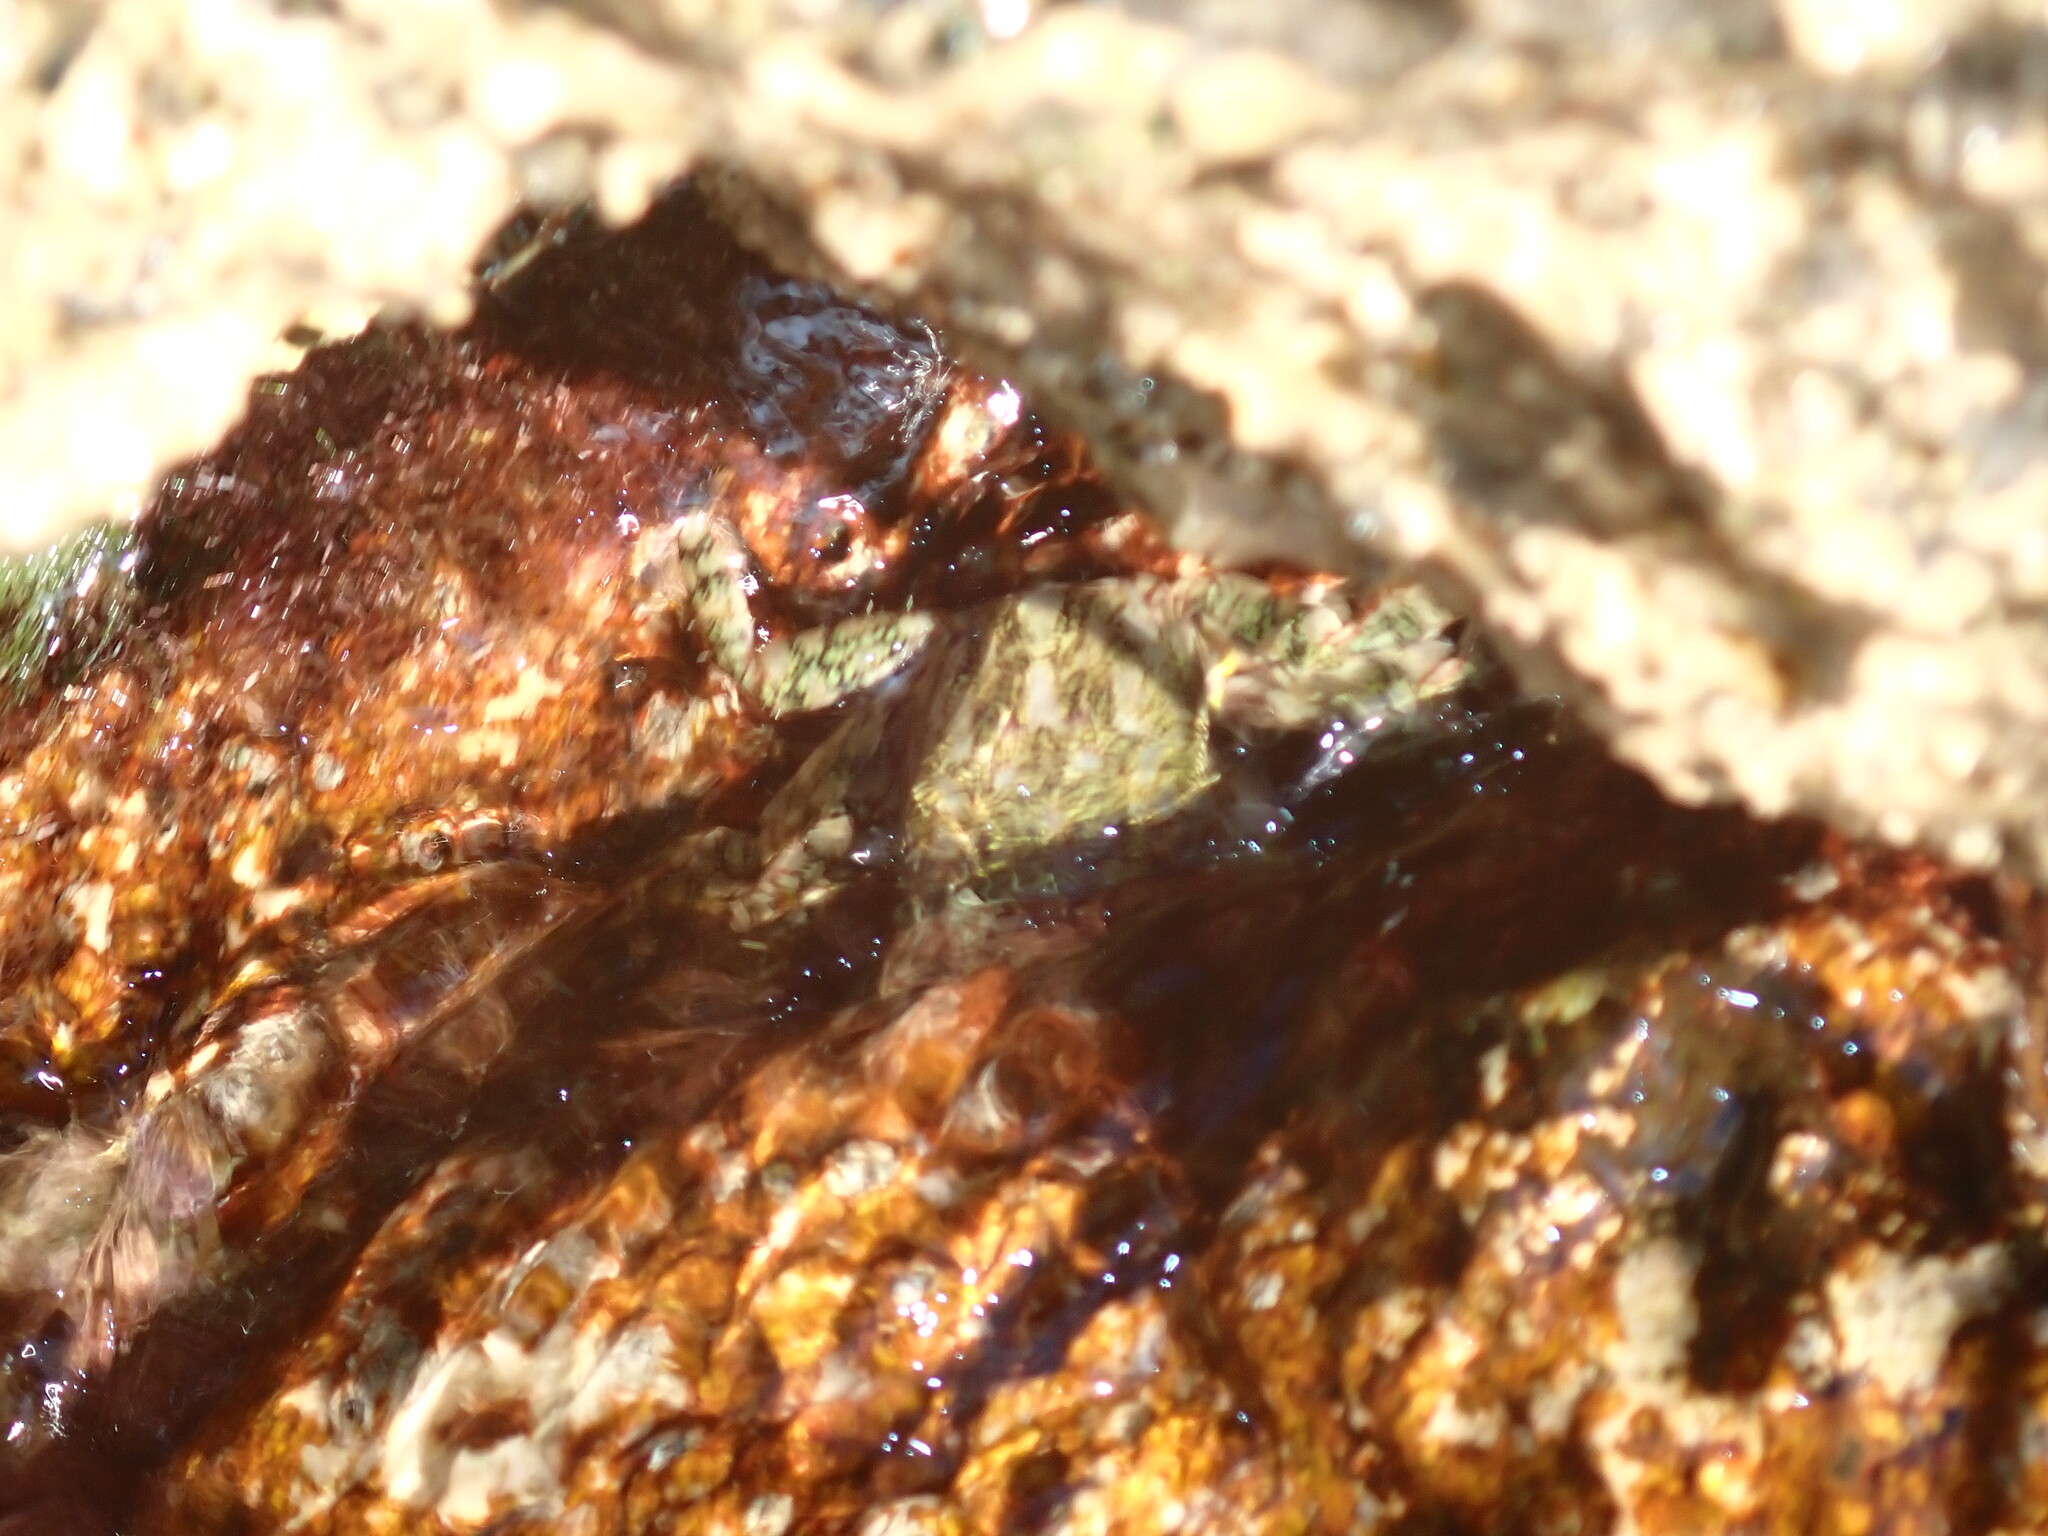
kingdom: Animalia
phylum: Arthropoda
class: Malacostraca
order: Decapoda
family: Grapsidae
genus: Pachygrapsus
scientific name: Pachygrapsus marmoratus
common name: Marbled rock crab
